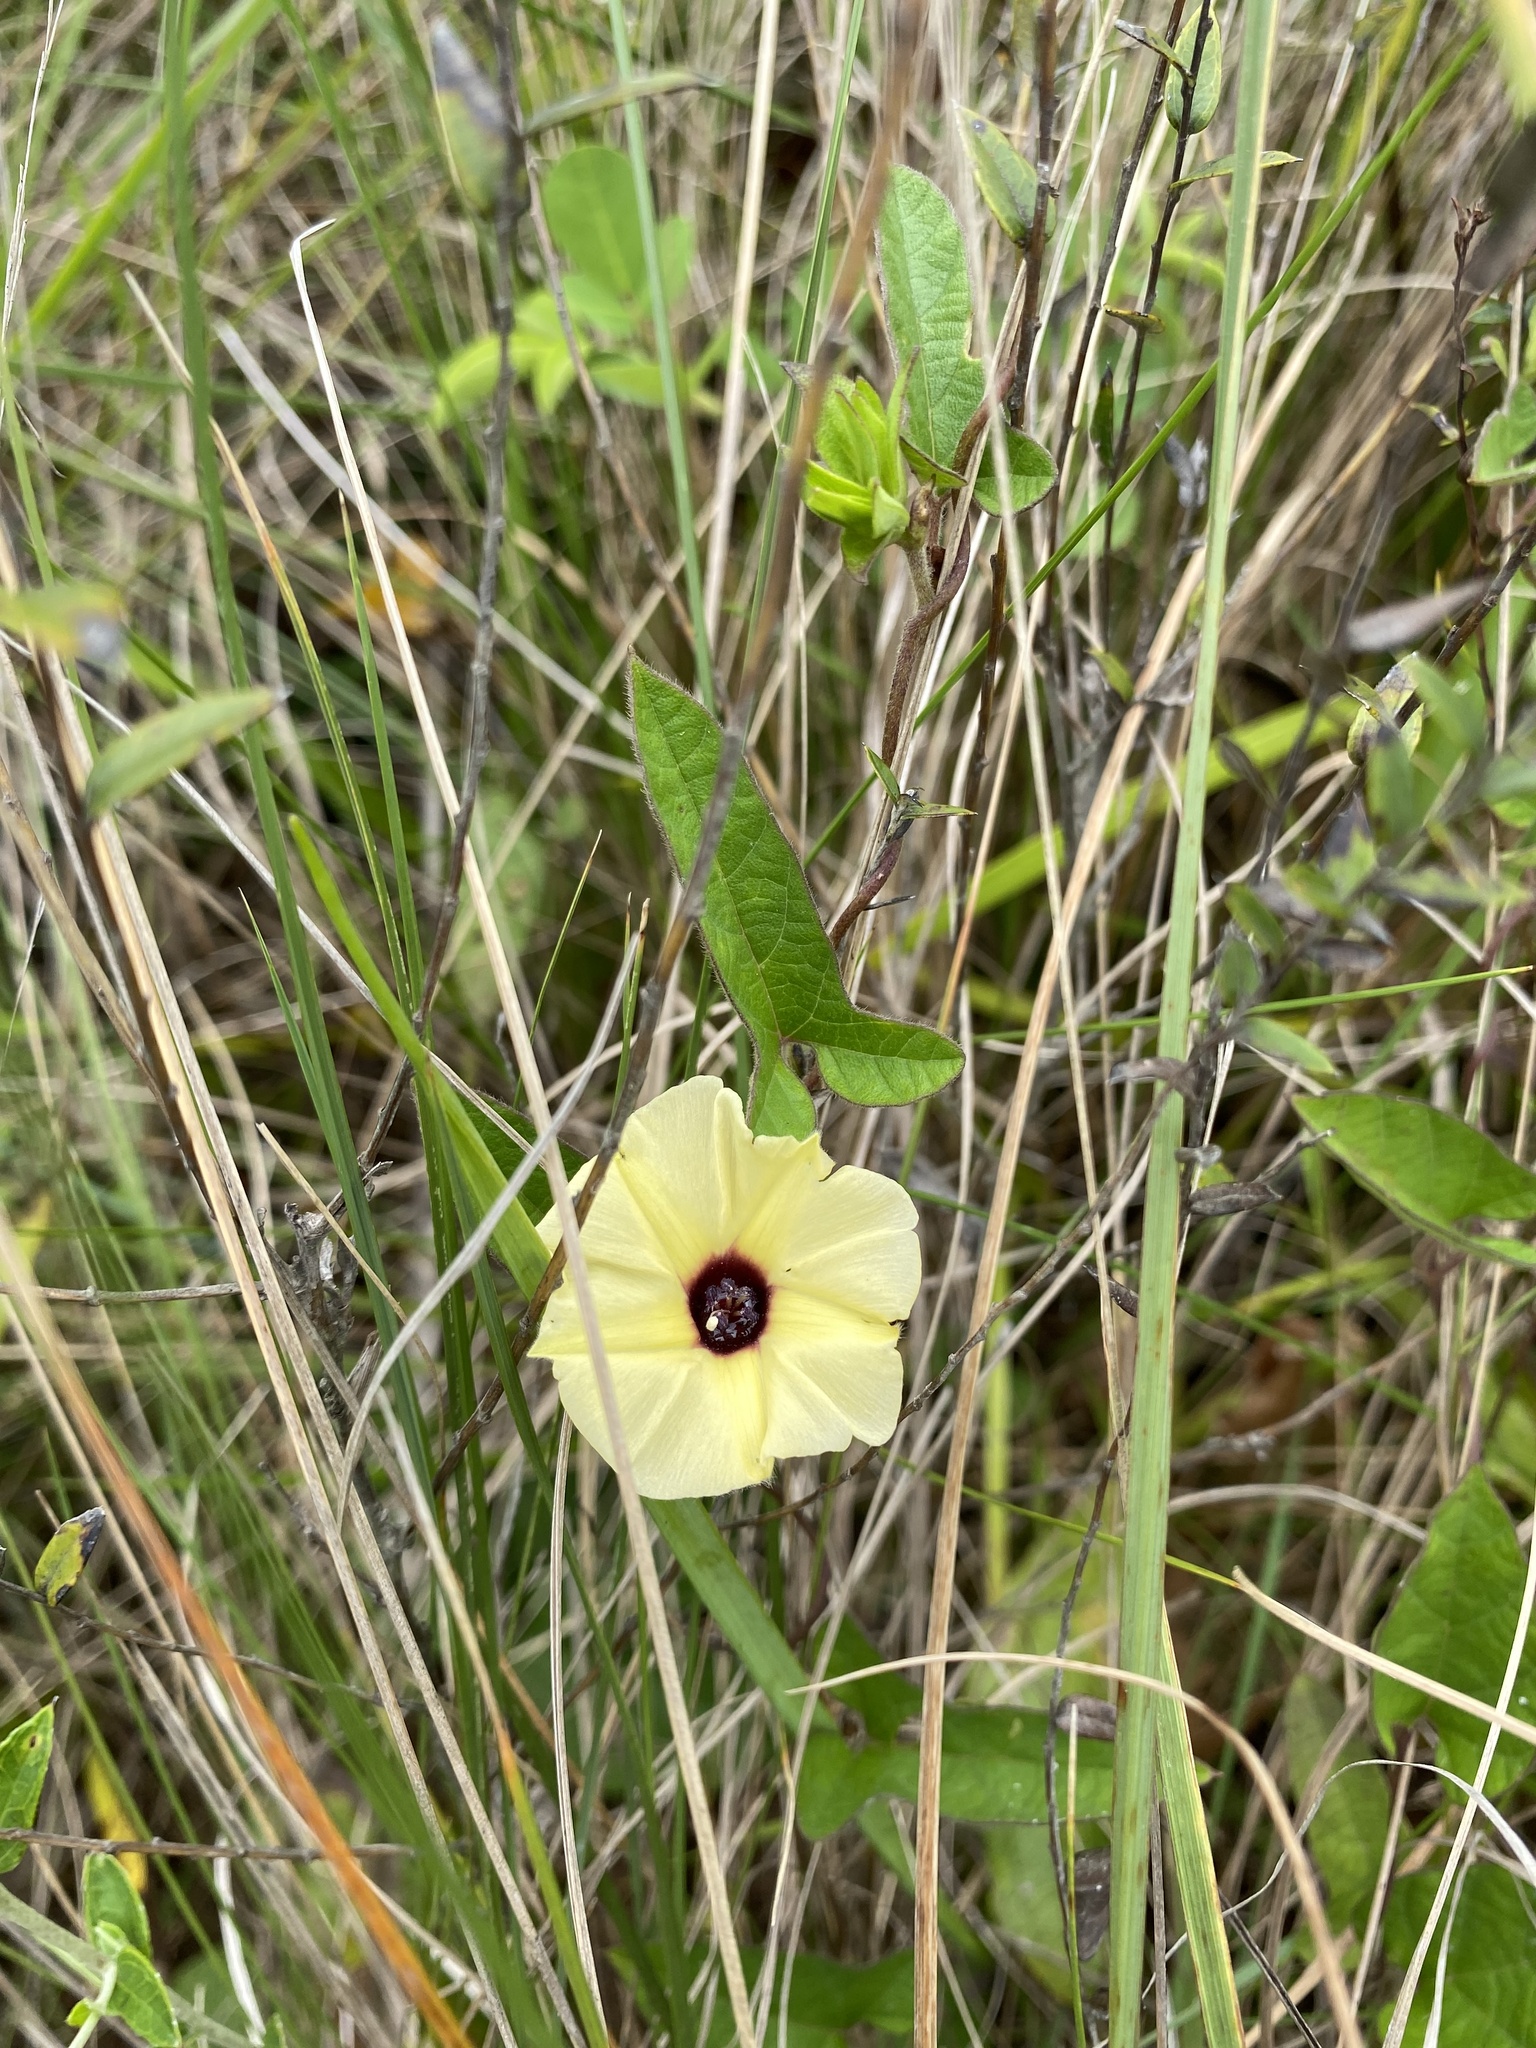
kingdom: Plantae
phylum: Tracheophyta
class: Magnoliopsida
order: Solanales
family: Convolvulaceae
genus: Hewittia
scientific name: Hewittia malabarica
